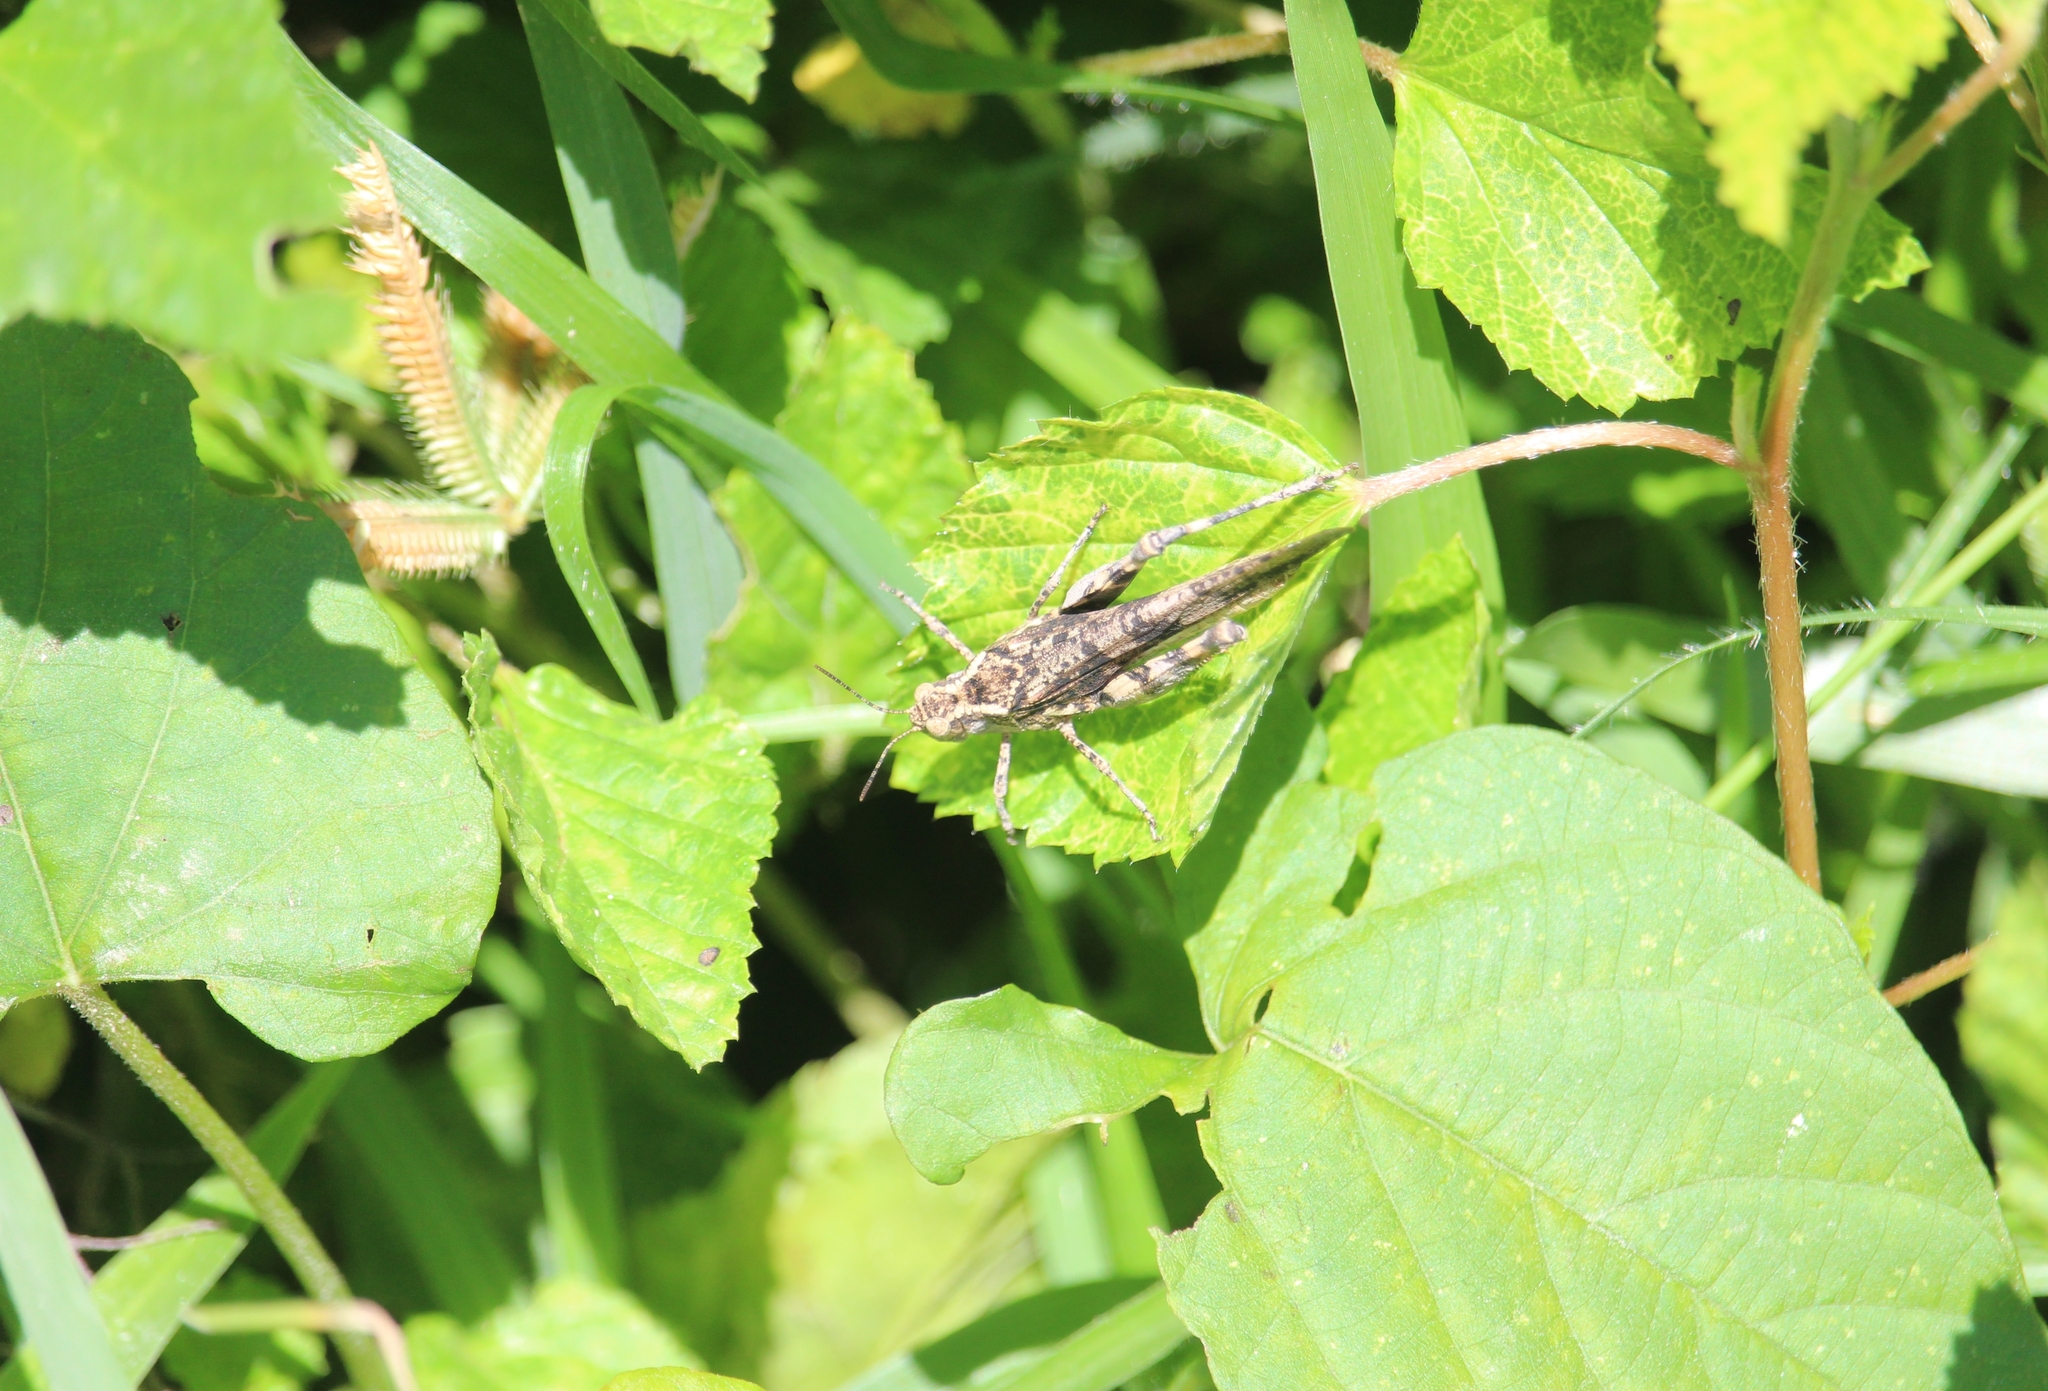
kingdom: Animalia
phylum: Arthropoda
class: Insecta
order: Orthoptera
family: Acrididae
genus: Lactista
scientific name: Lactista stramineus
